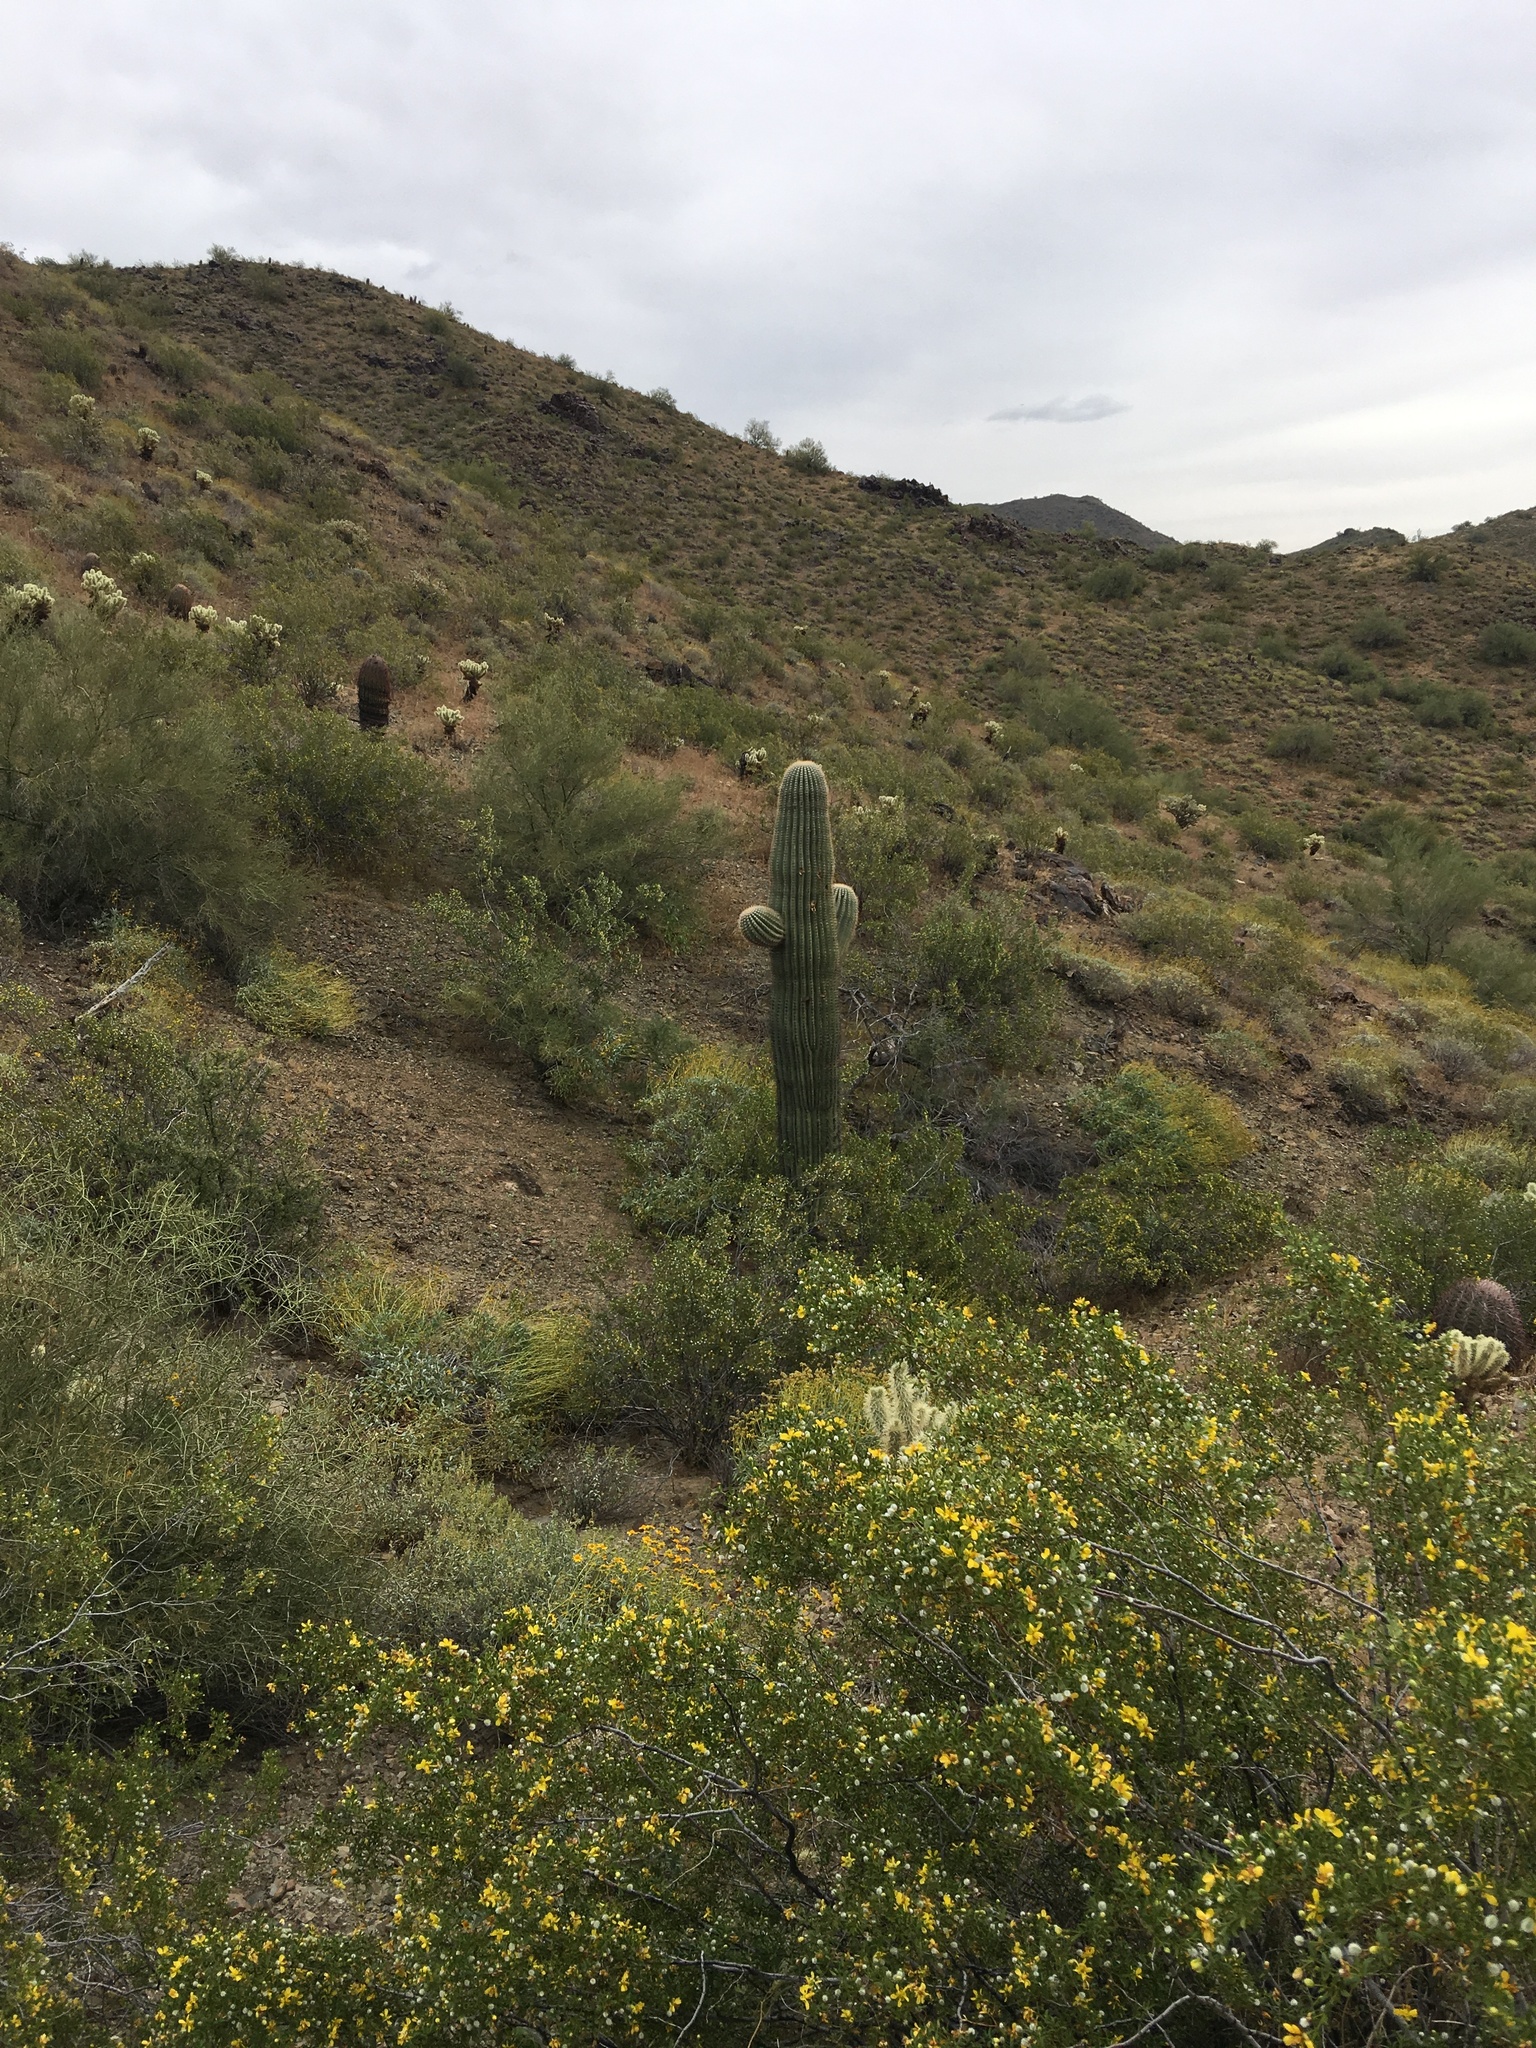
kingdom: Plantae
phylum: Tracheophyta
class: Magnoliopsida
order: Caryophyllales
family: Cactaceae
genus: Carnegiea
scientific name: Carnegiea gigantea
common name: Saguaro
